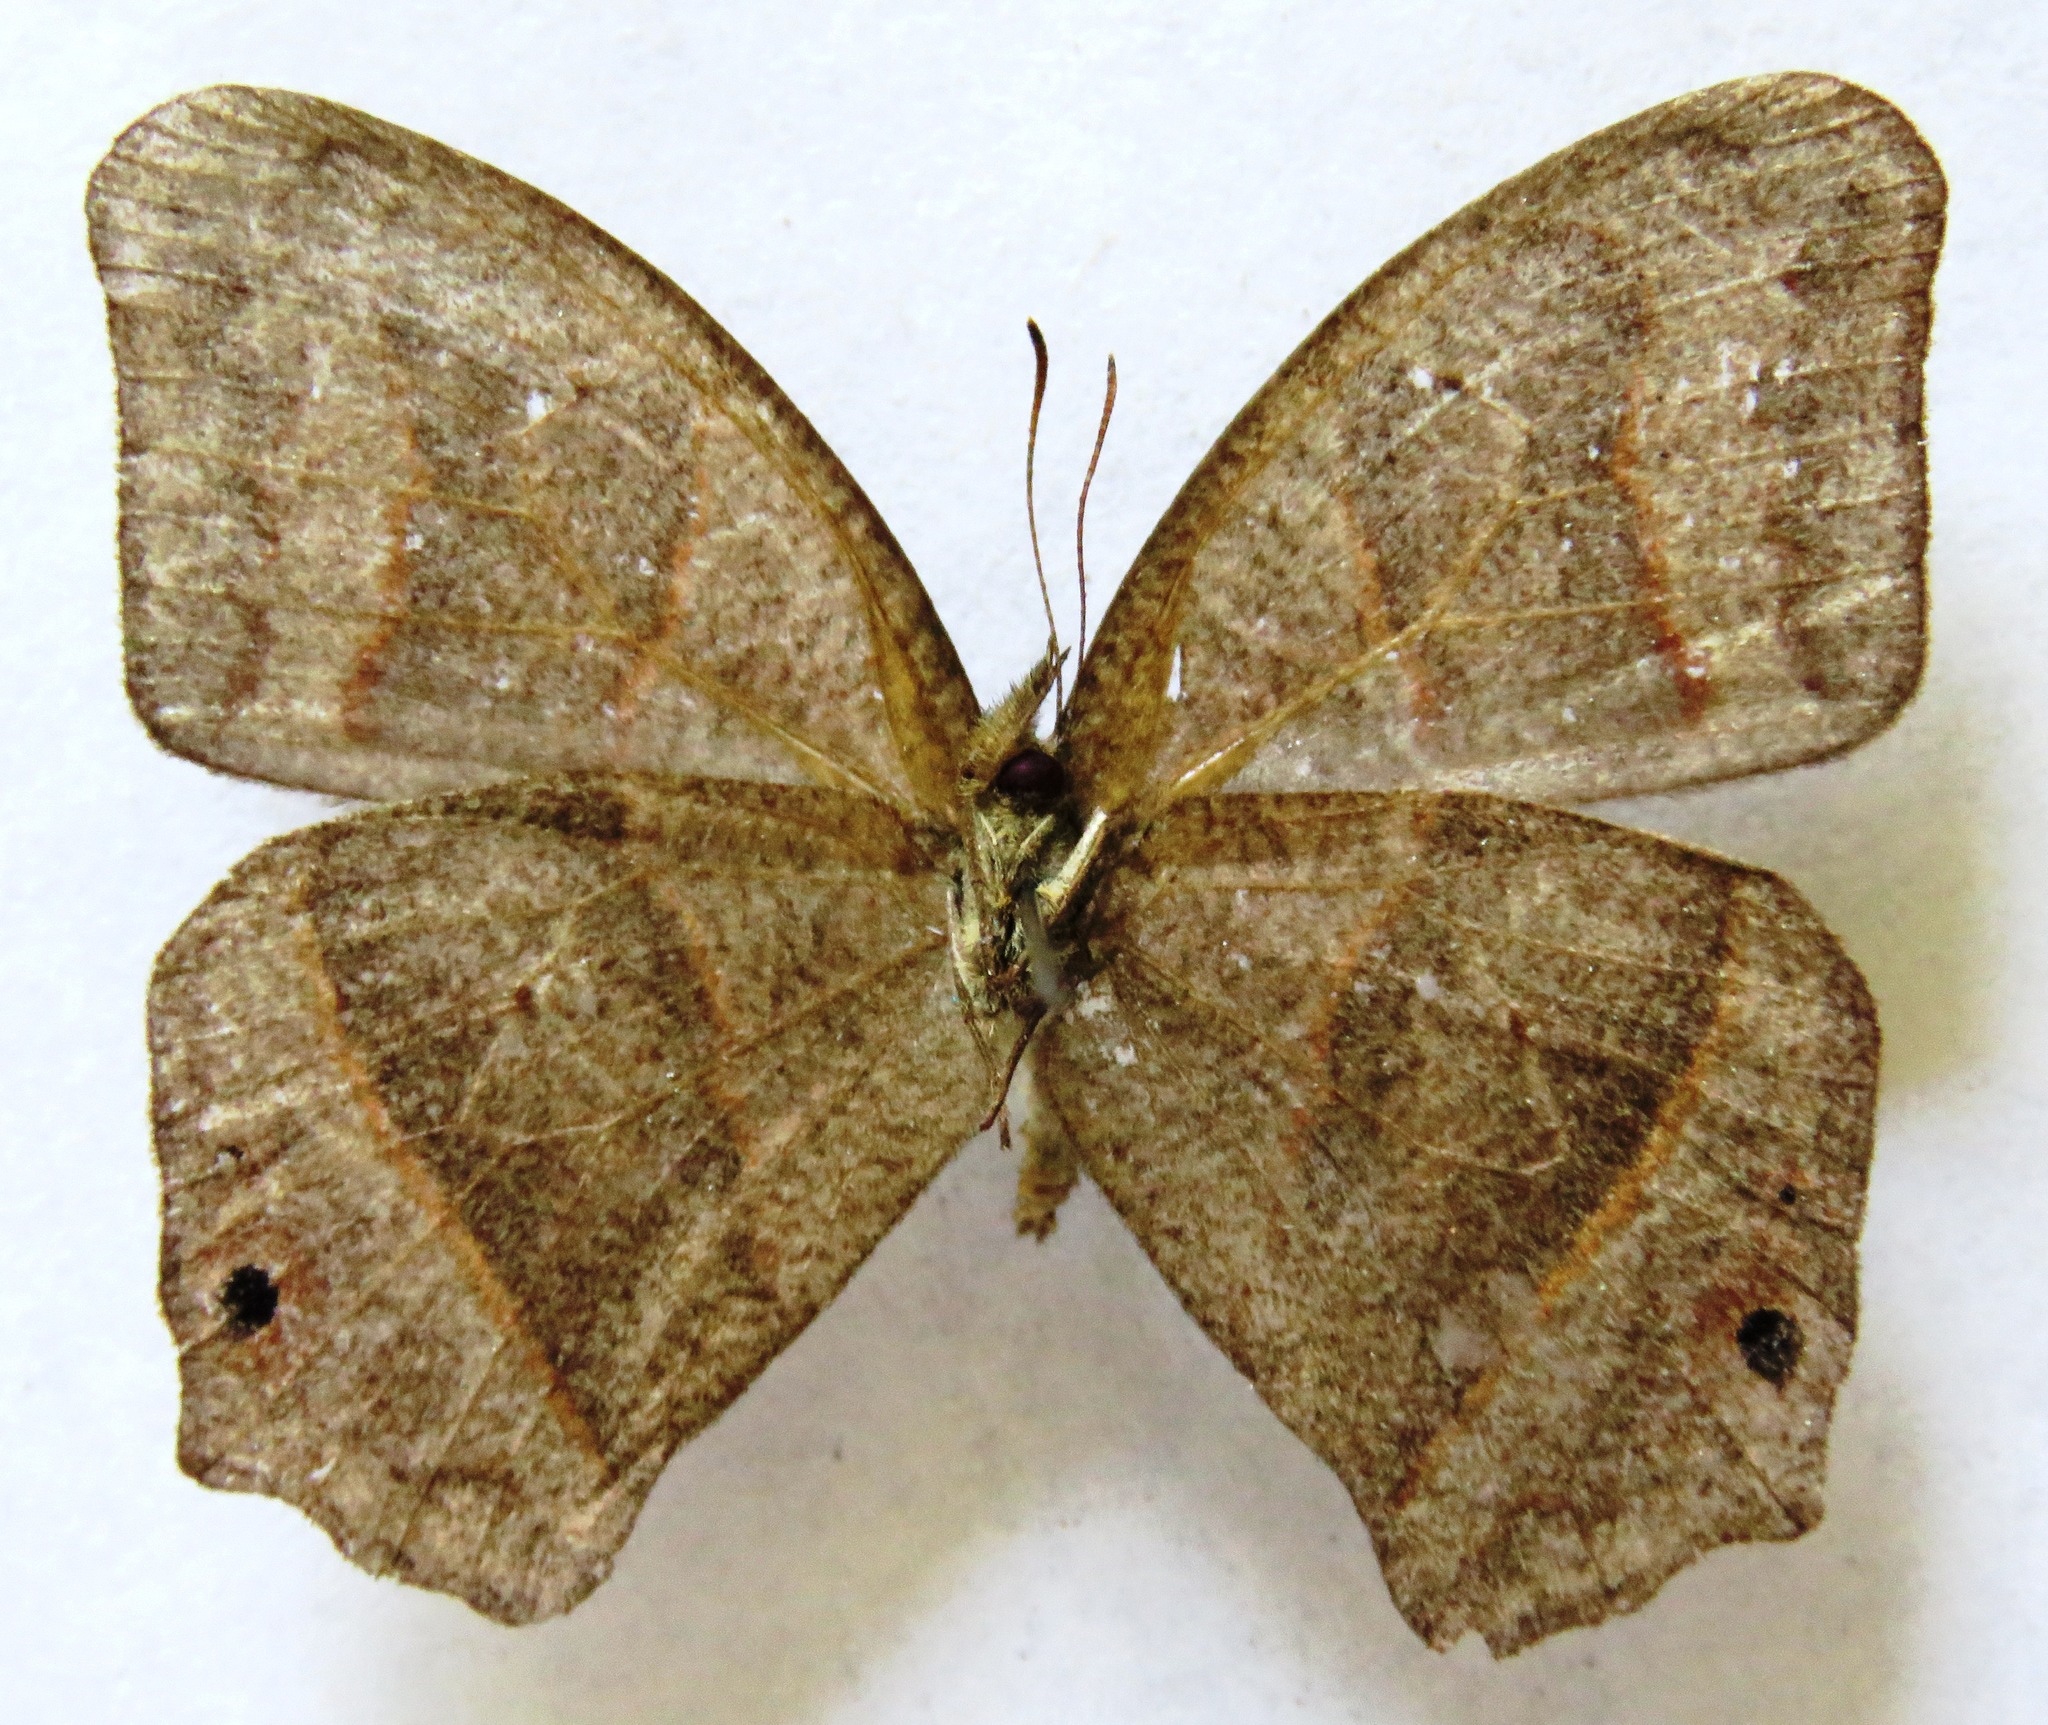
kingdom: Animalia
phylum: Arthropoda
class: Insecta
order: Lepidoptera
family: Nymphalidae
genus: Euptychia
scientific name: Euptychia Cyllopsis hedemanni
